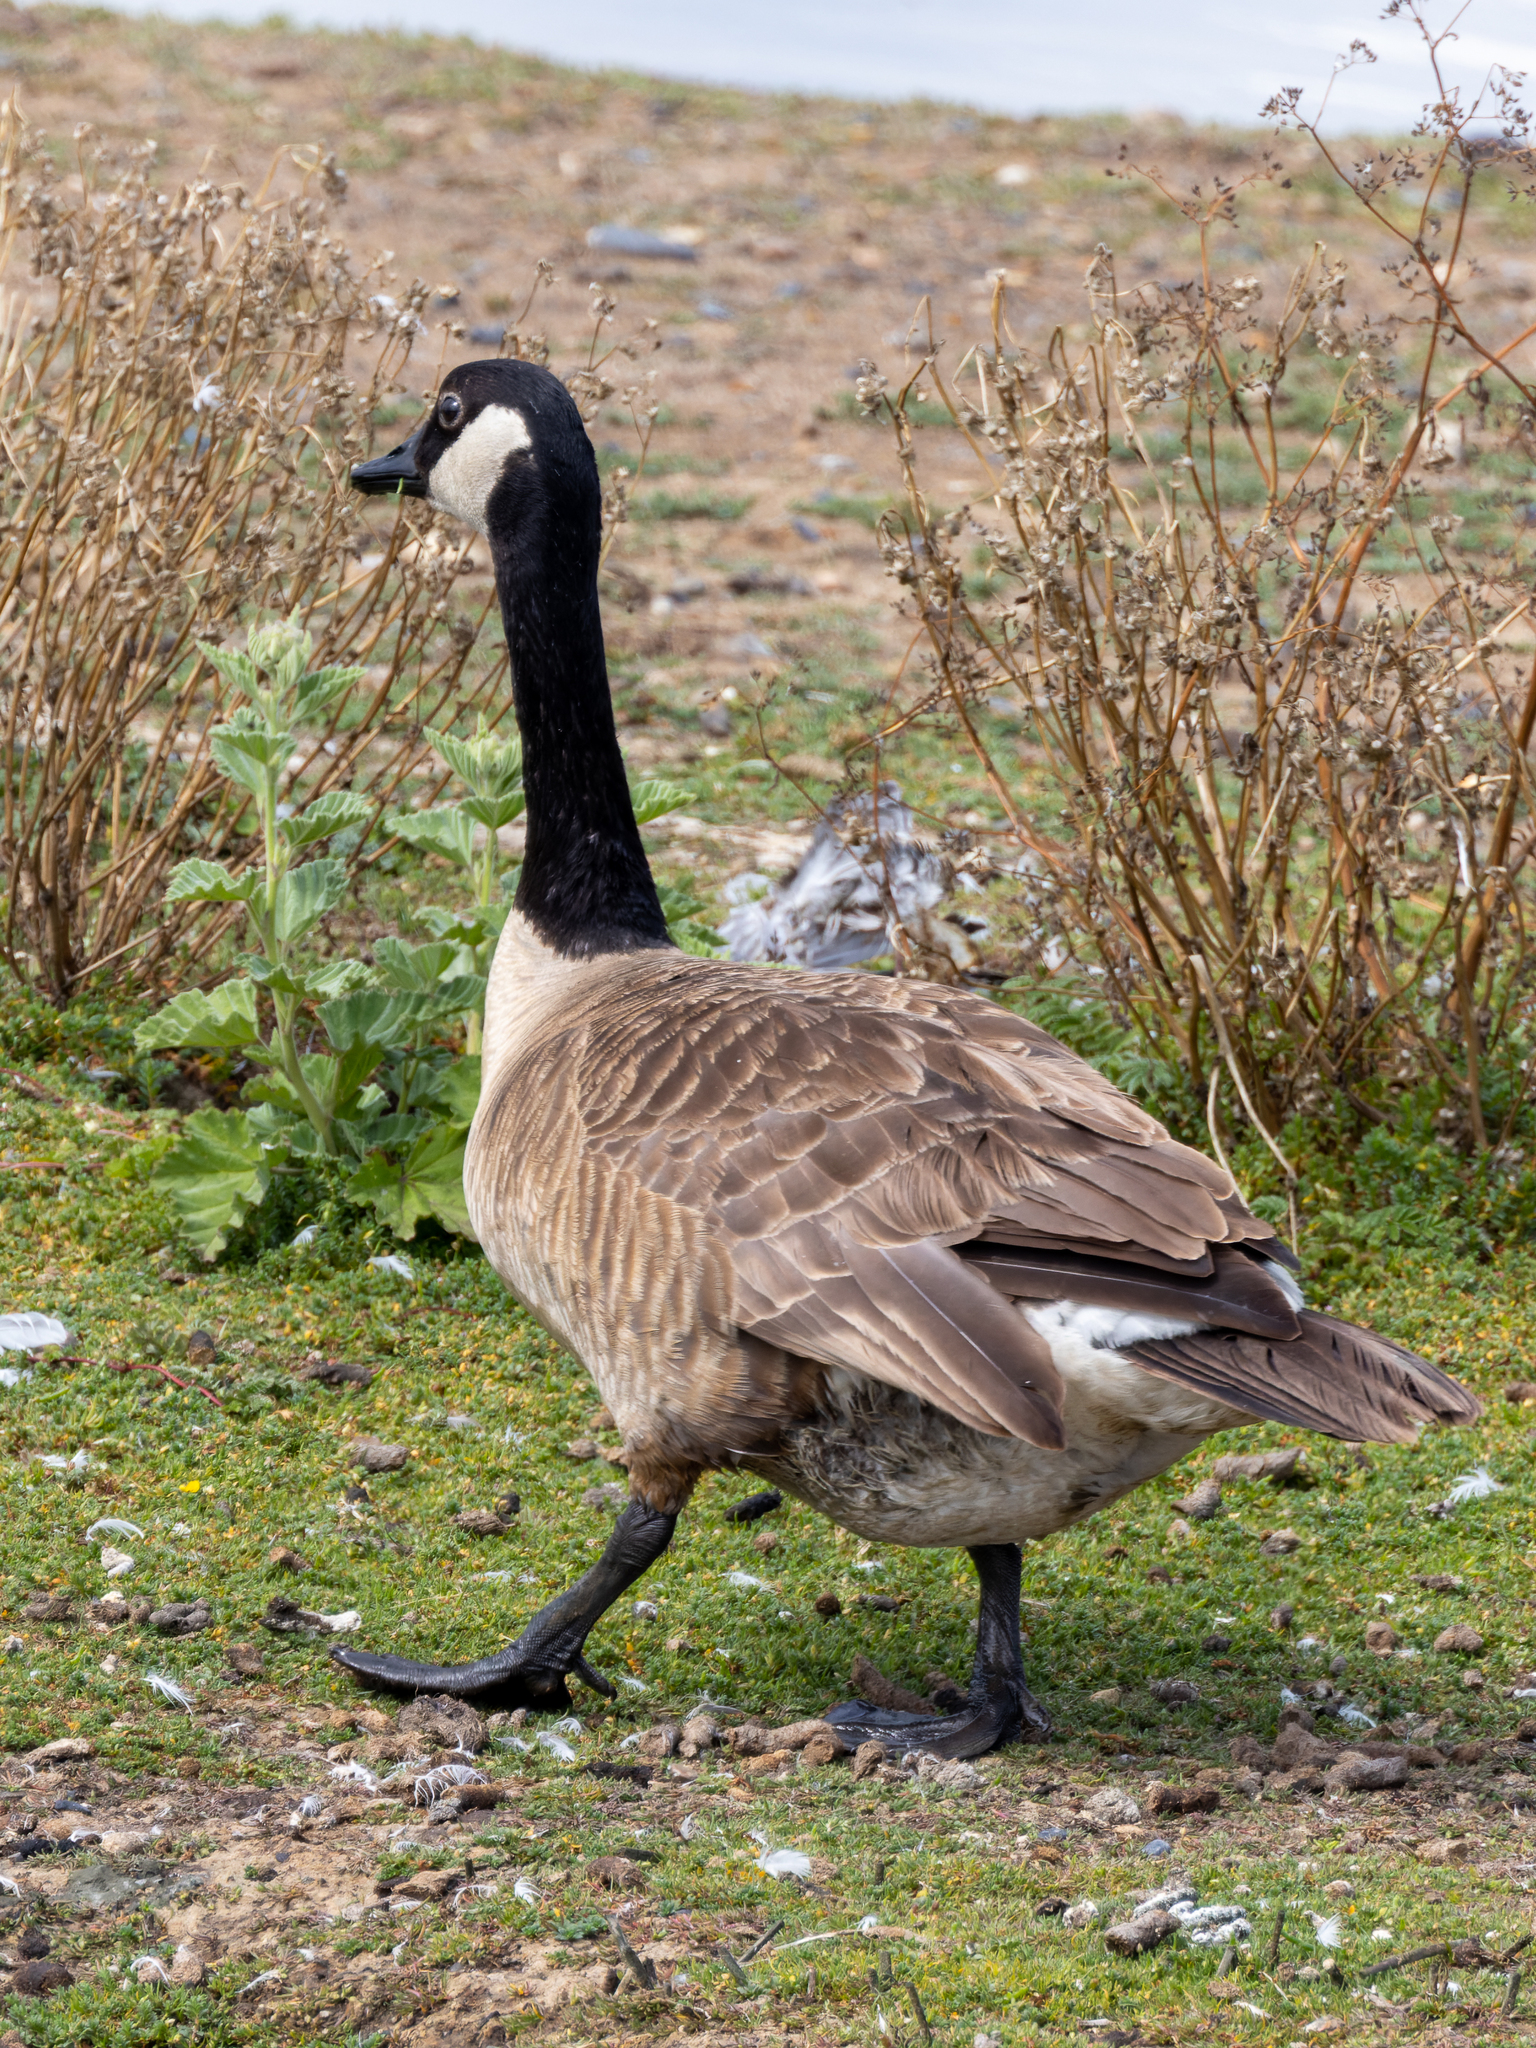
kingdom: Animalia
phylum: Chordata
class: Aves
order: Anseriformes
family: Anatidae
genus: Branta
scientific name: Branta canadensis
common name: Canada goose
